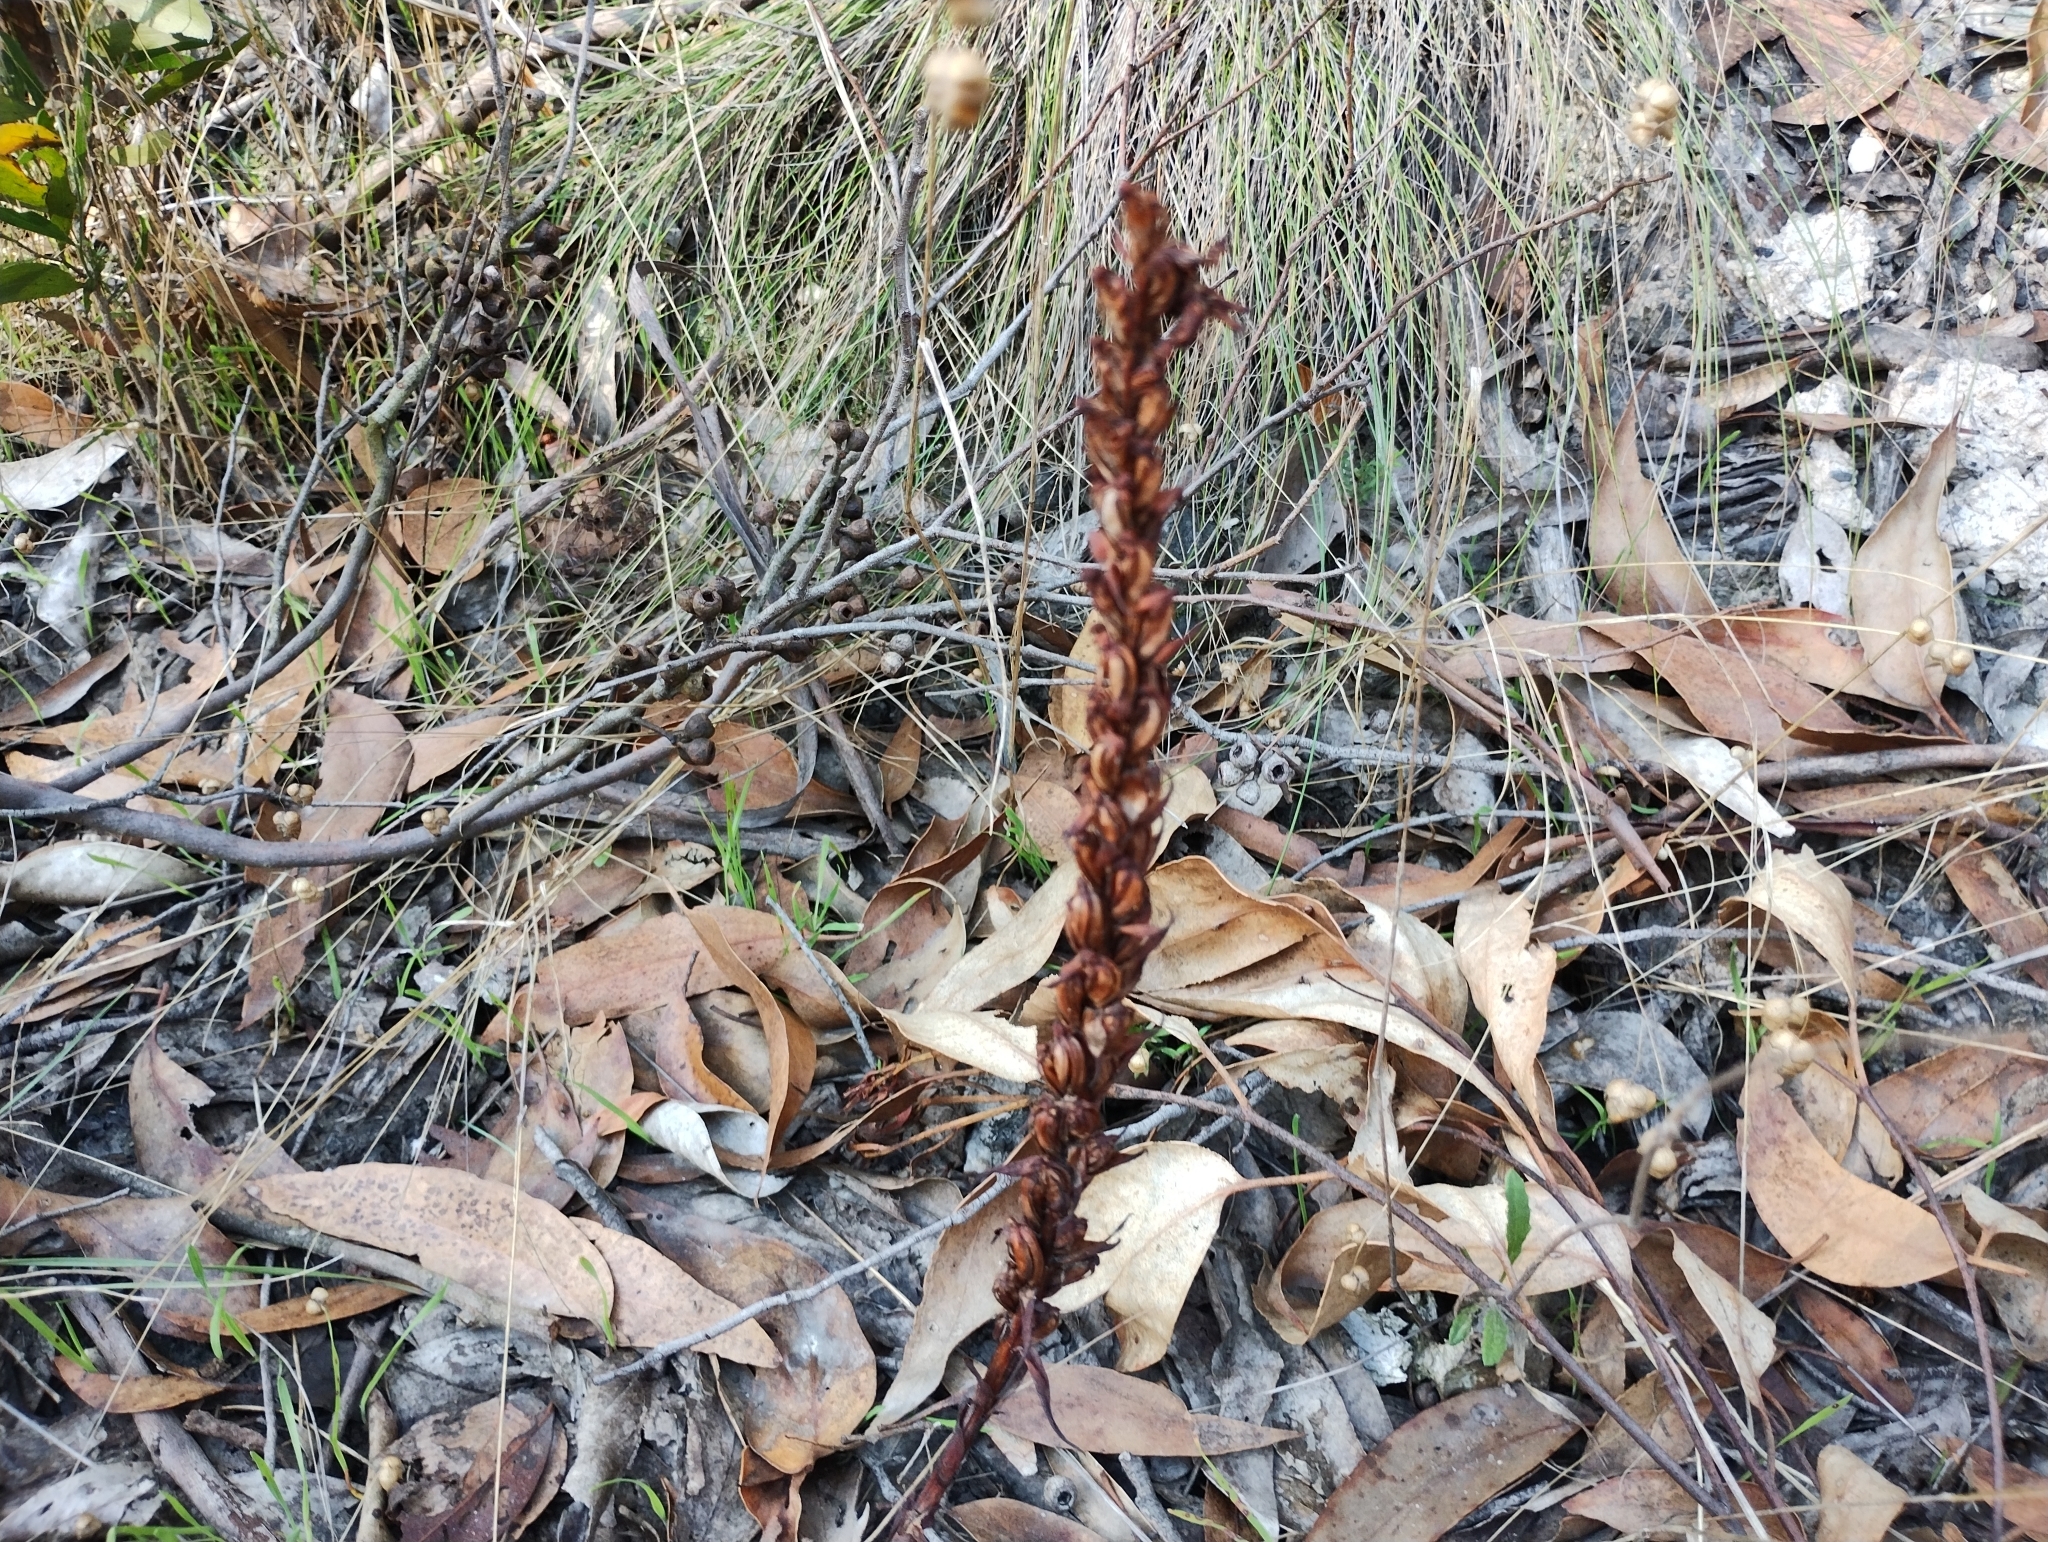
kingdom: Plantae
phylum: Tracheophyta
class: Liliopsida
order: Asparagales
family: Orchidaceae
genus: Disa
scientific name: Disa bracteata
